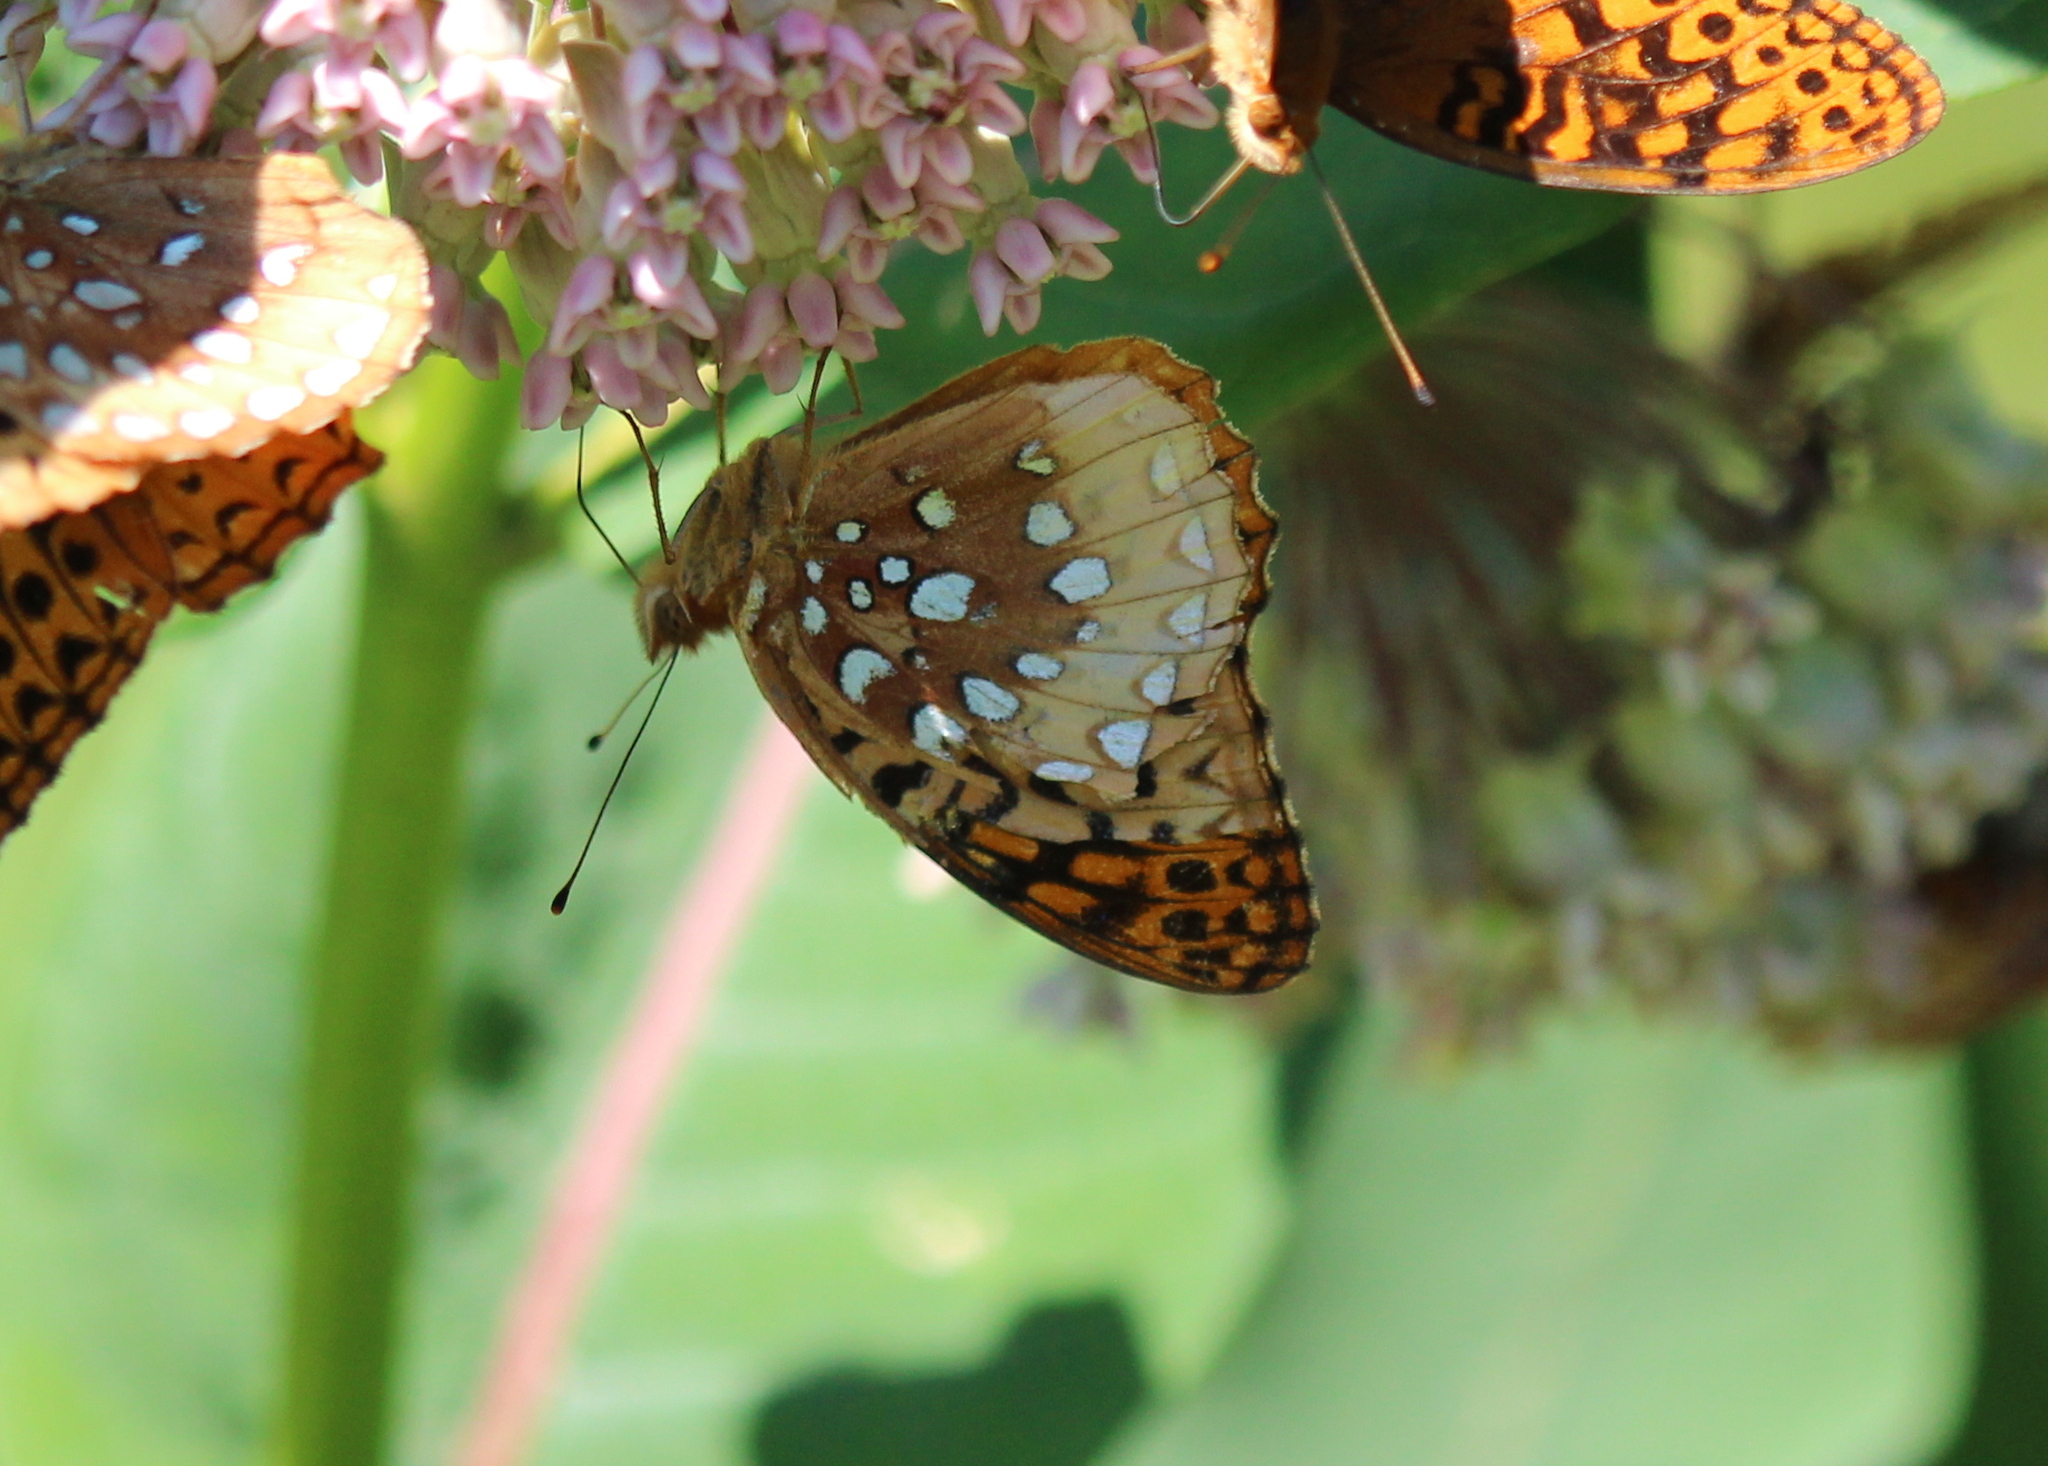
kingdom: Animalia
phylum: Arthropoda
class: Insecta
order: Lepidoptera
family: Nymphalidae
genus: Speyeria
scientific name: Speyeria cybele
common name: Great spangled fritillary
